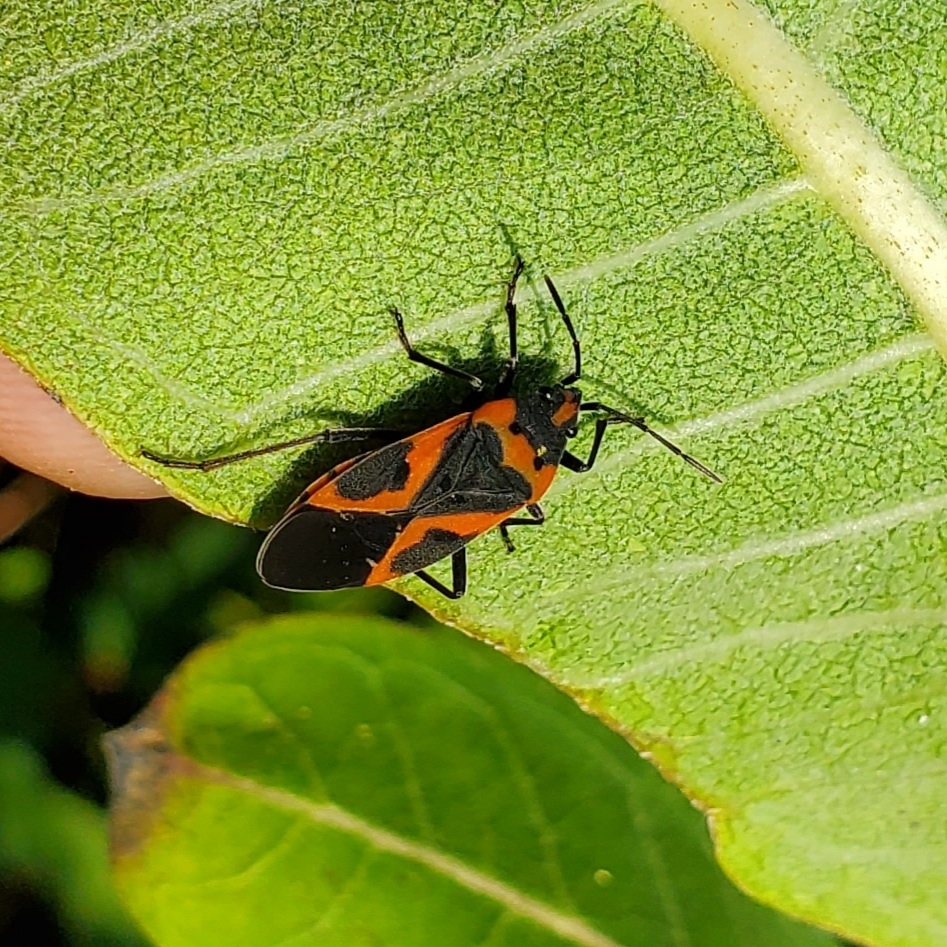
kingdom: Animalia
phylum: Arthropoda
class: Insecta
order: Hemiptera
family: Lygaeidae
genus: Lygaeus
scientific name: Lygaeus kalmii
